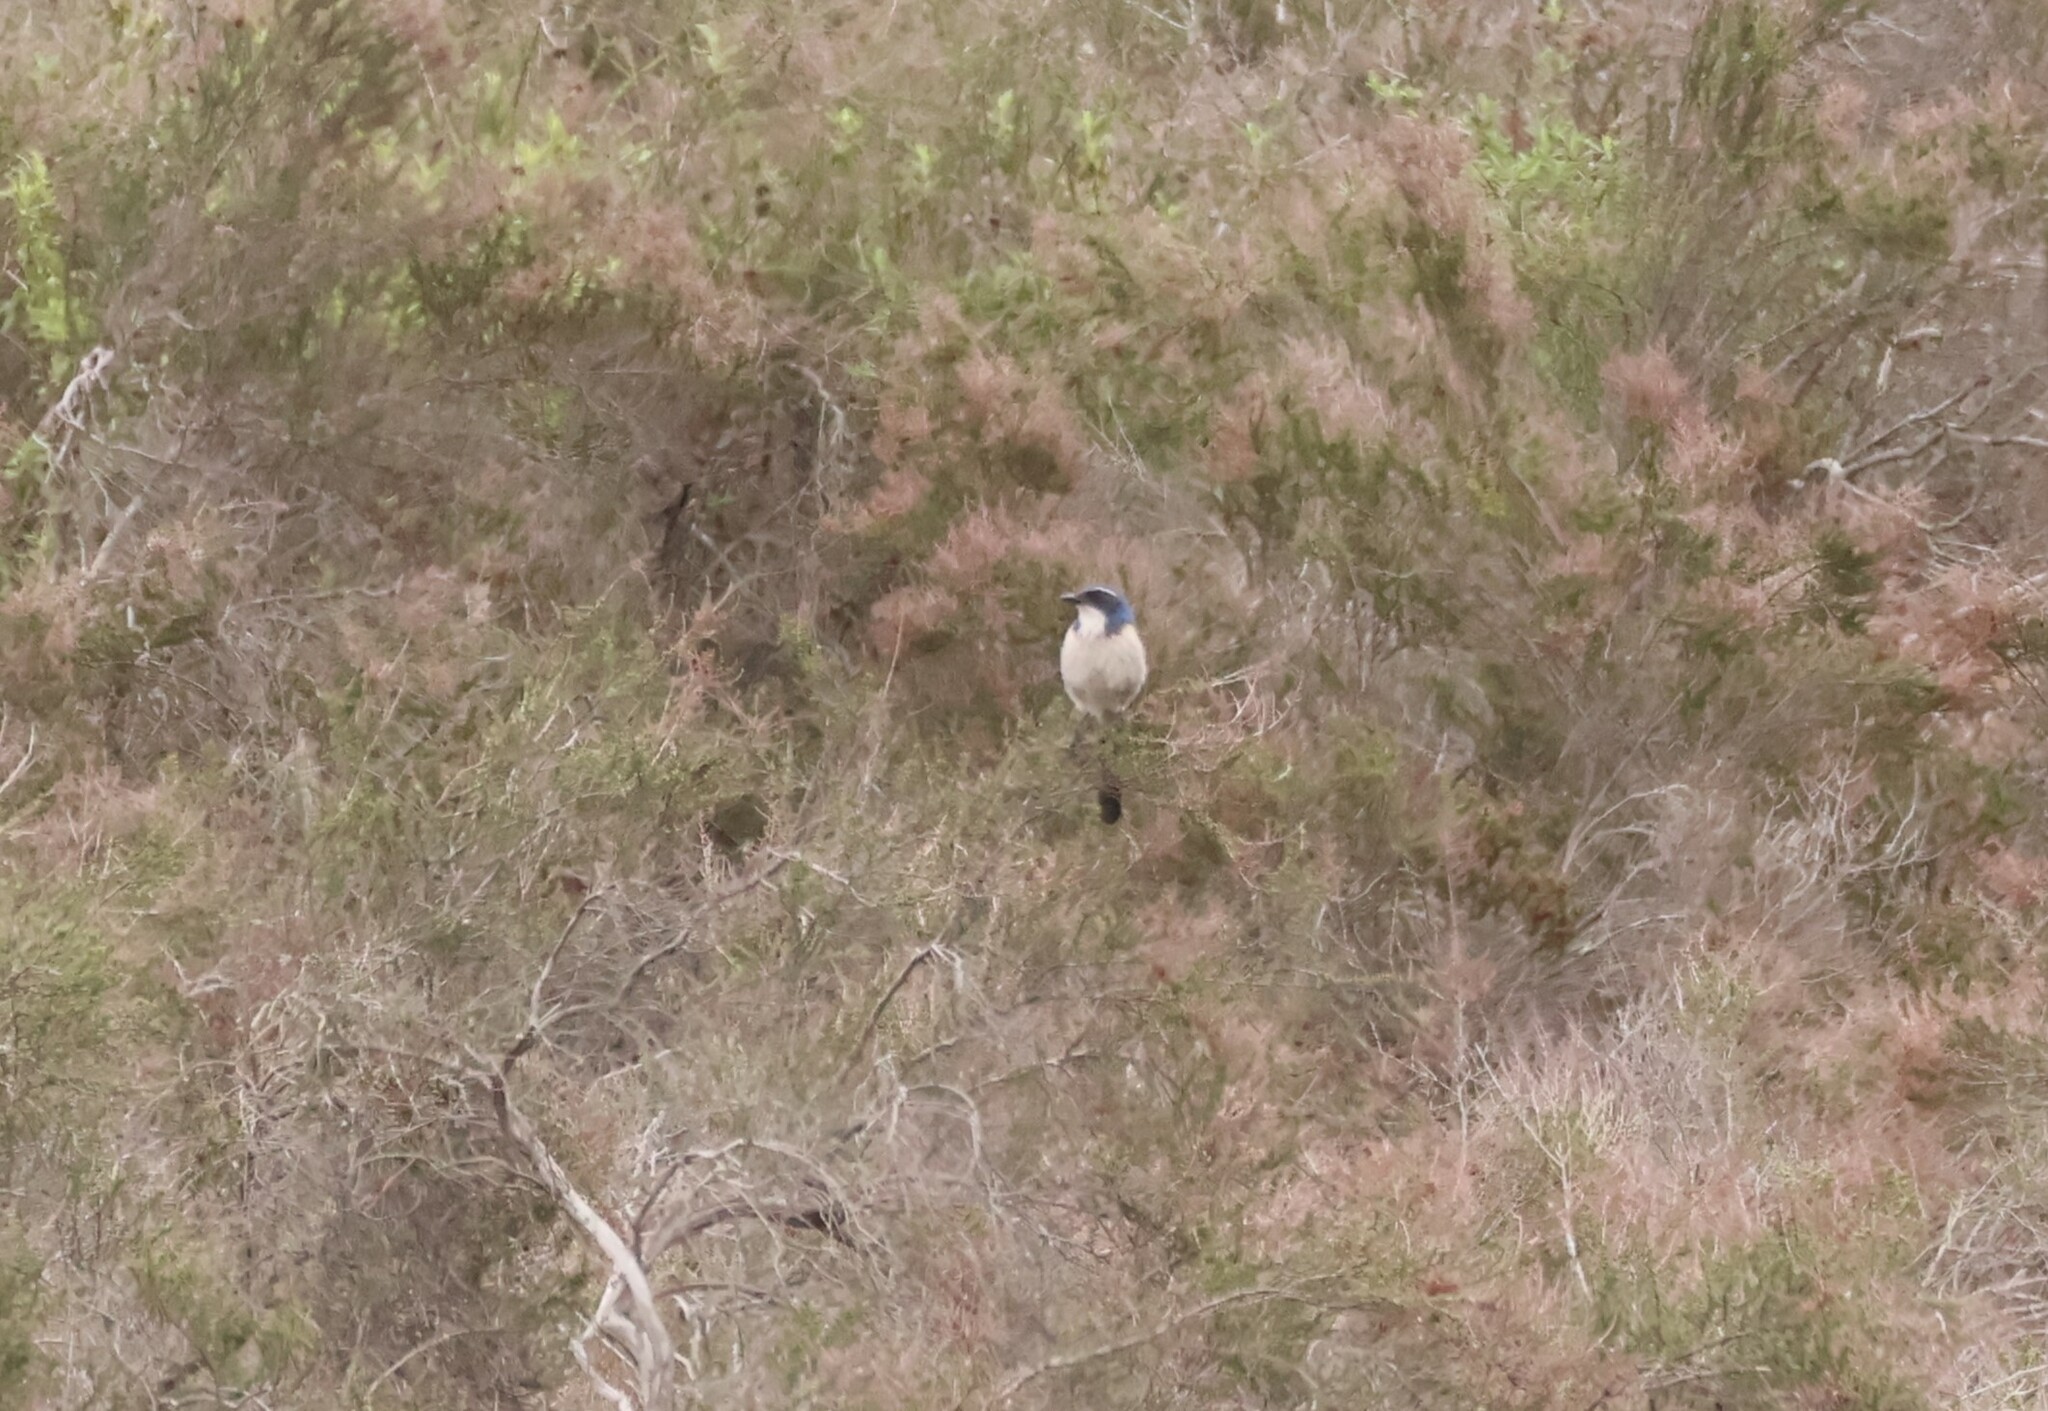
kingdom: Animalia
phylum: Chordata
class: Aves
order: Passeriformes
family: Corvidae
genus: Aphelocoma
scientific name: Aphelocoma californica
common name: California scrub-jay
